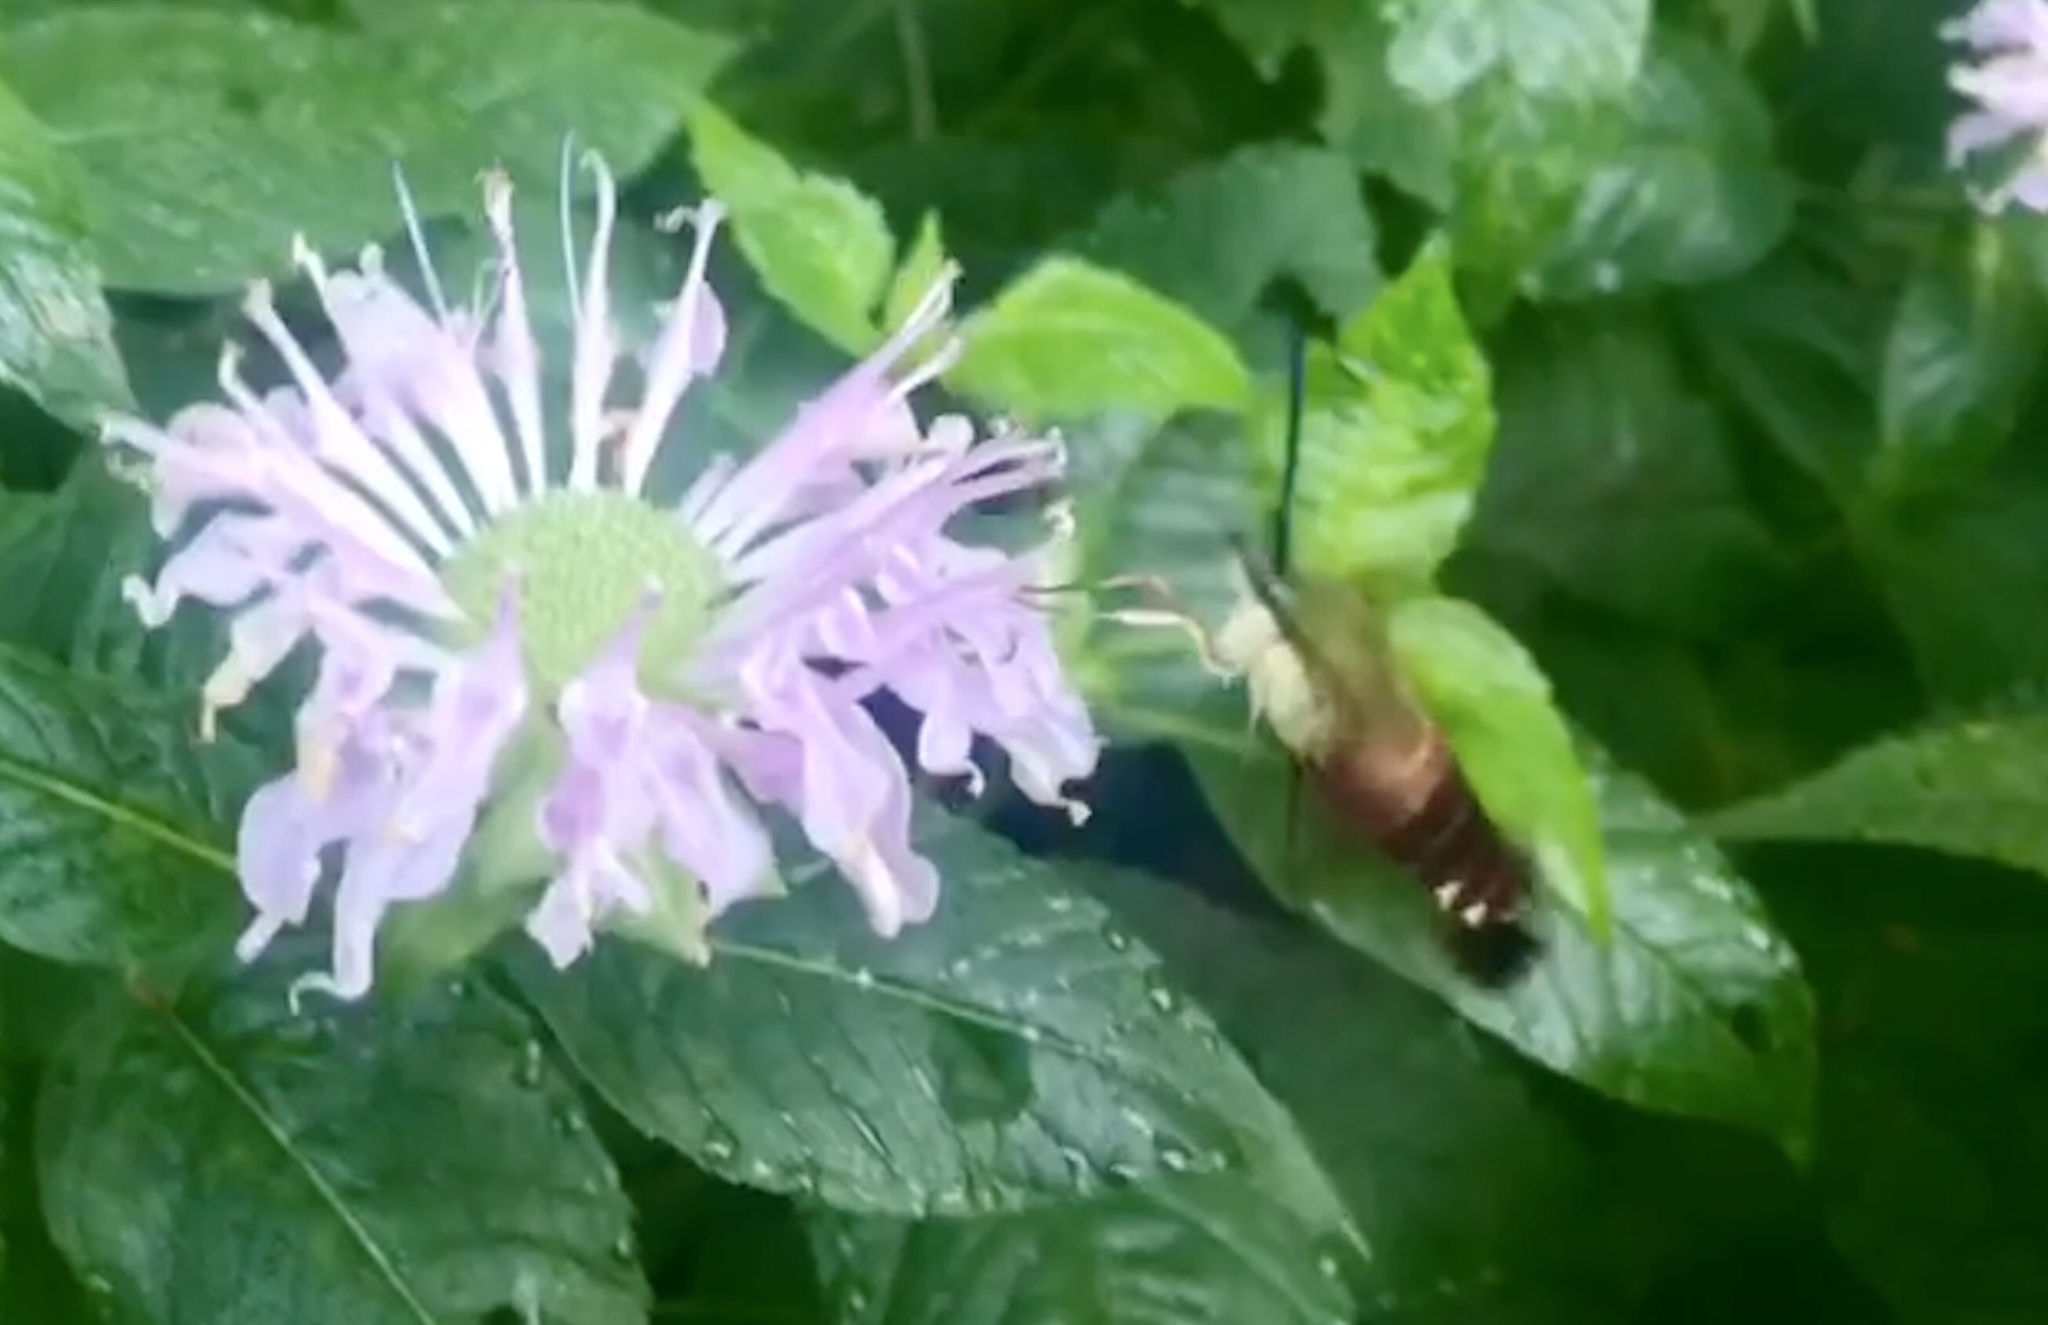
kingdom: Animalia
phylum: Arthropoda
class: Insecta
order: Lepidoptera
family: Sphingidae
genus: Hemaris
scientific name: Hemaris thysbe
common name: Common clear-wing
